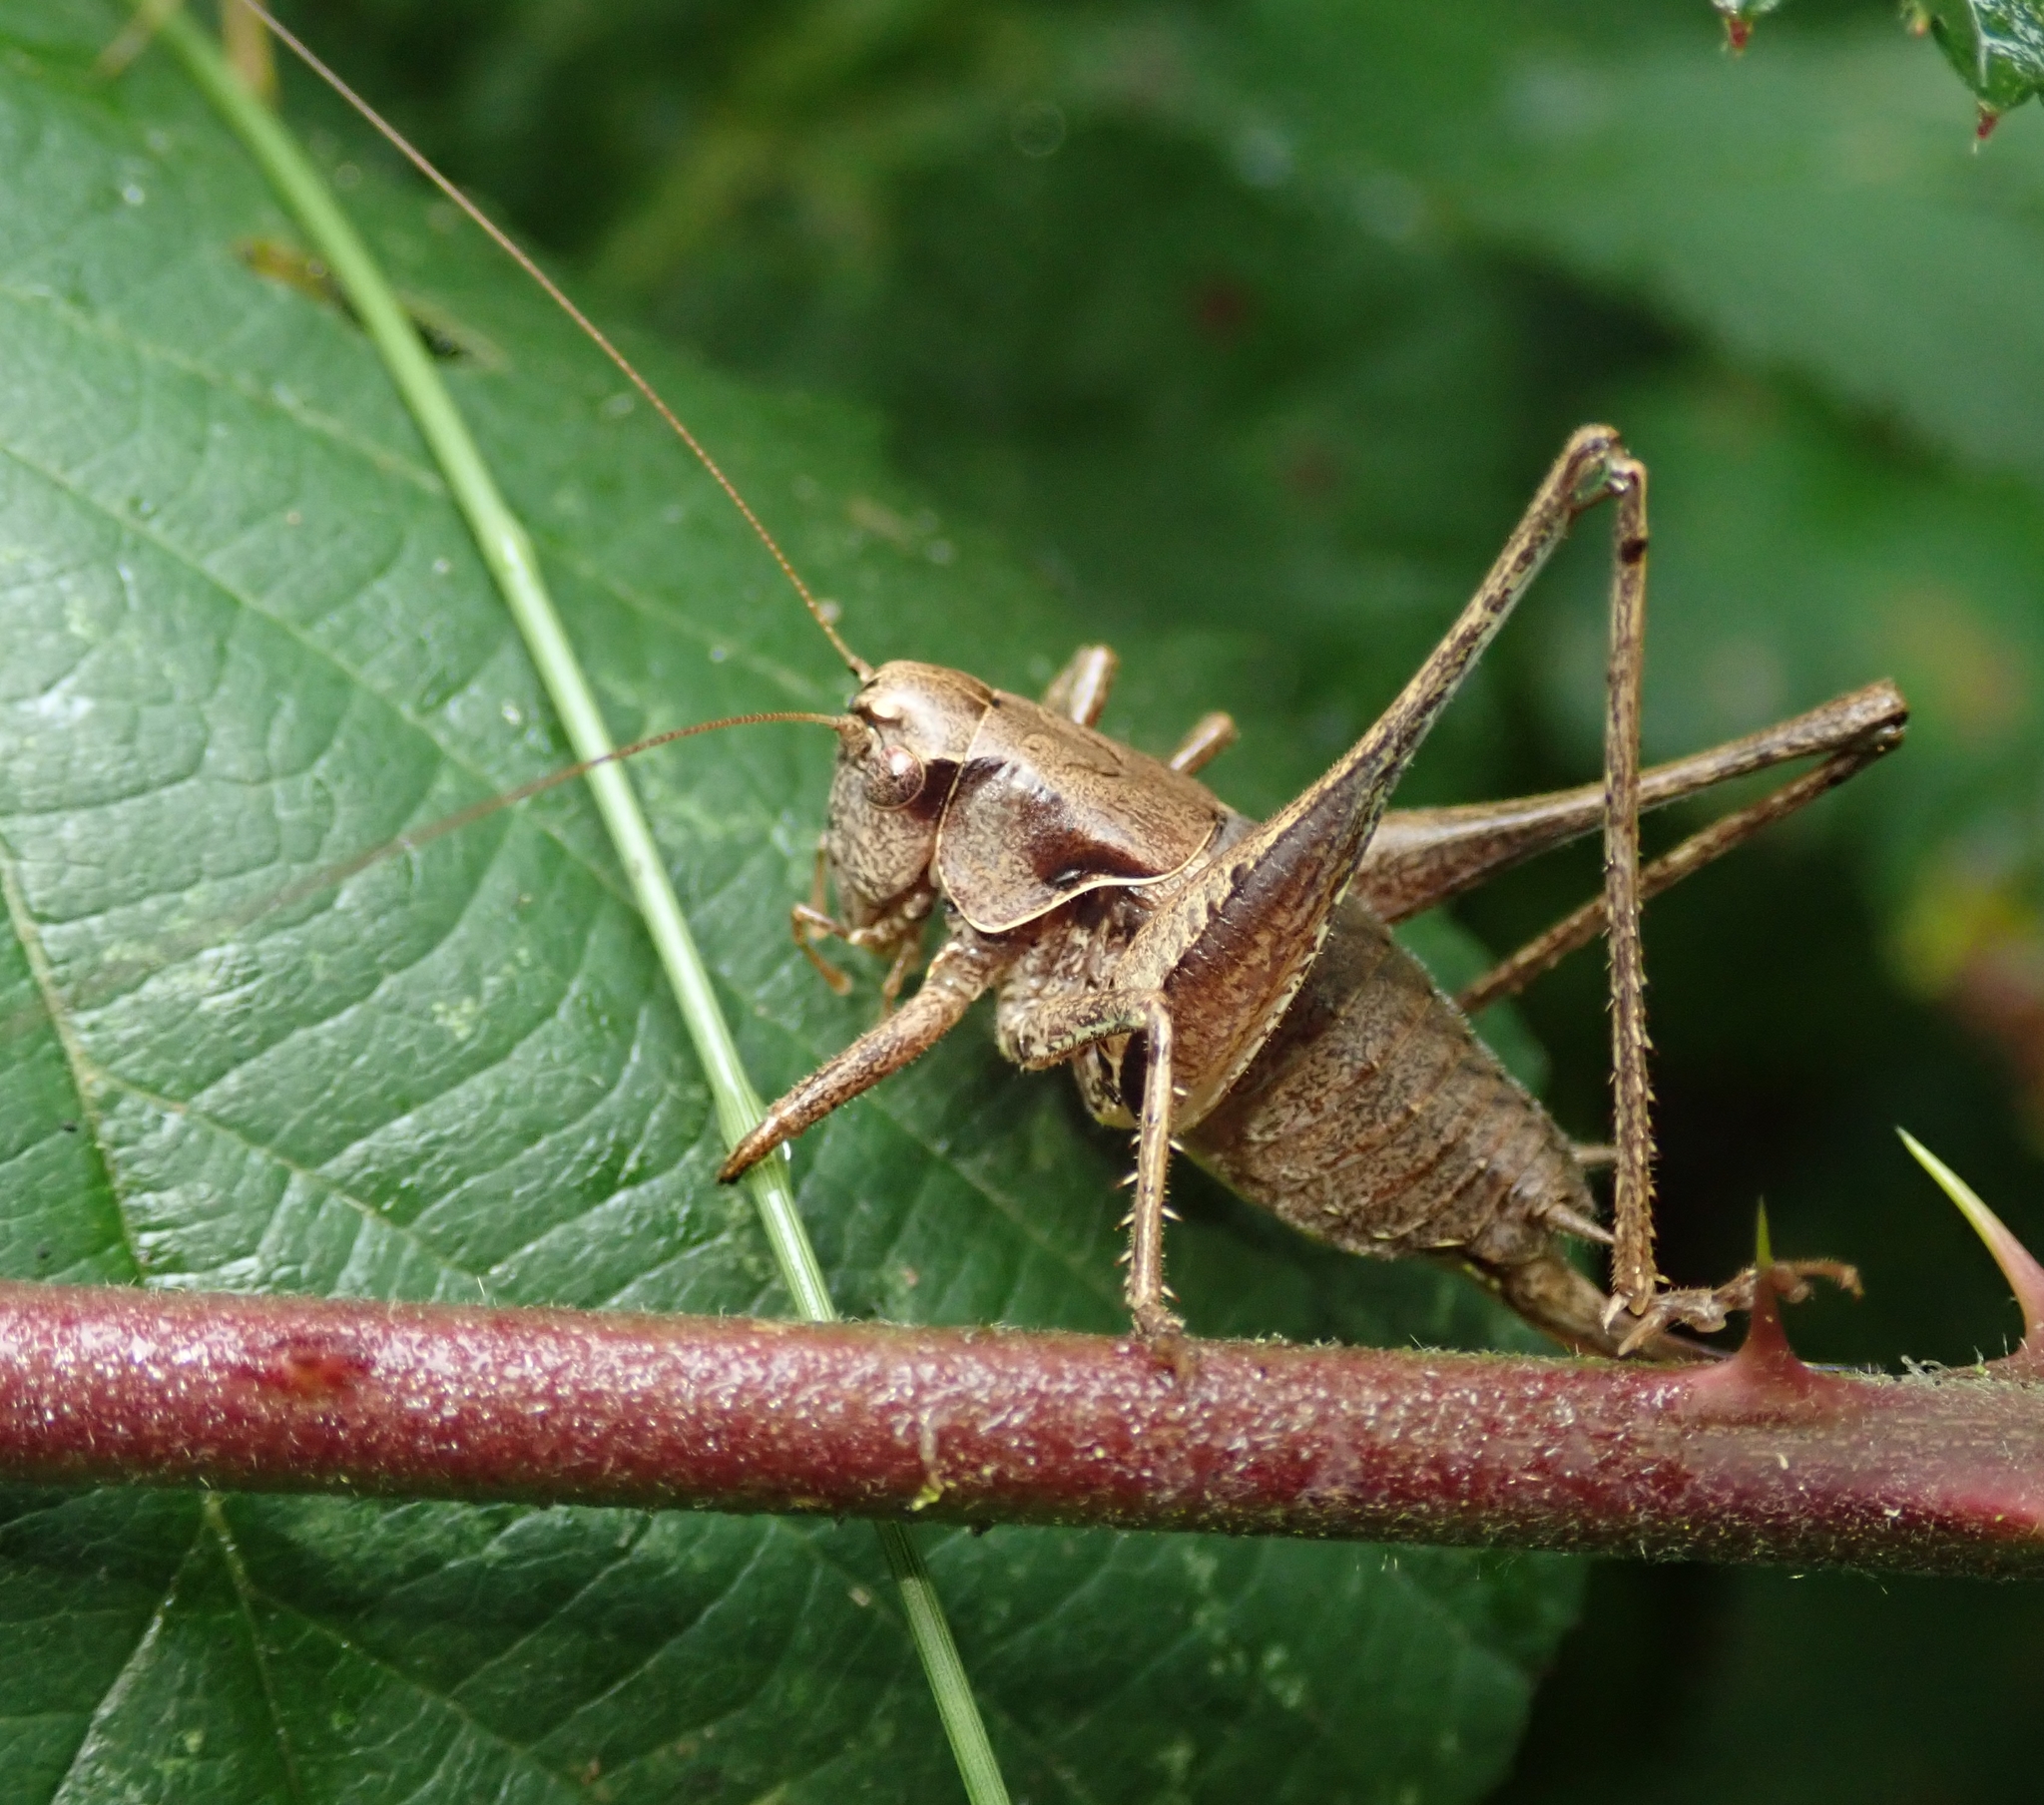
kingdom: Animalia
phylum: Arthropoda
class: Insecta
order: Orthoptera
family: Tettigoniidae
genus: Pholidoptera
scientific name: Pholidoptera griseoaptera
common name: Dark bush-cricket
